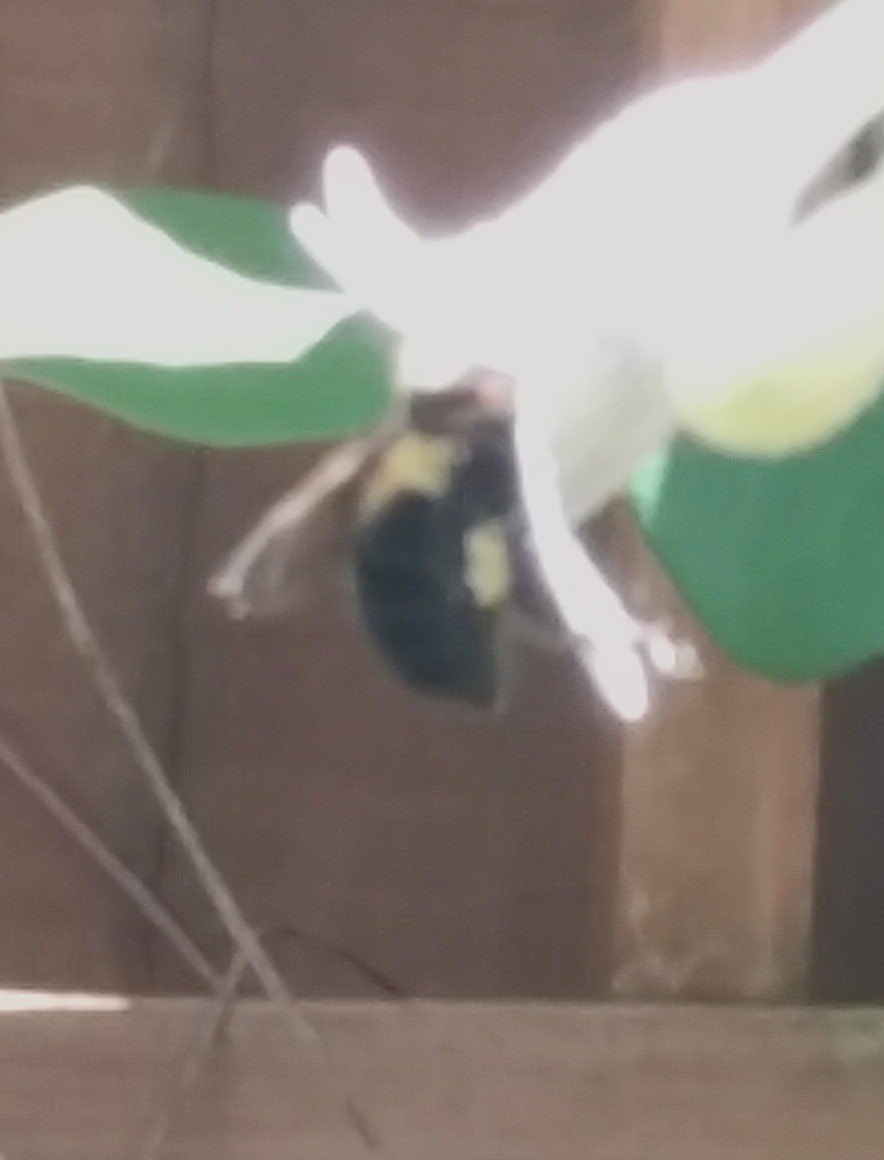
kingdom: Animalia
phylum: Arthropoda
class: Insecta
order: Hymenoptera
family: Apidae
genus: Bombus
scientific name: Bombus bimaculatus
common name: Two-spotted bumble bee
